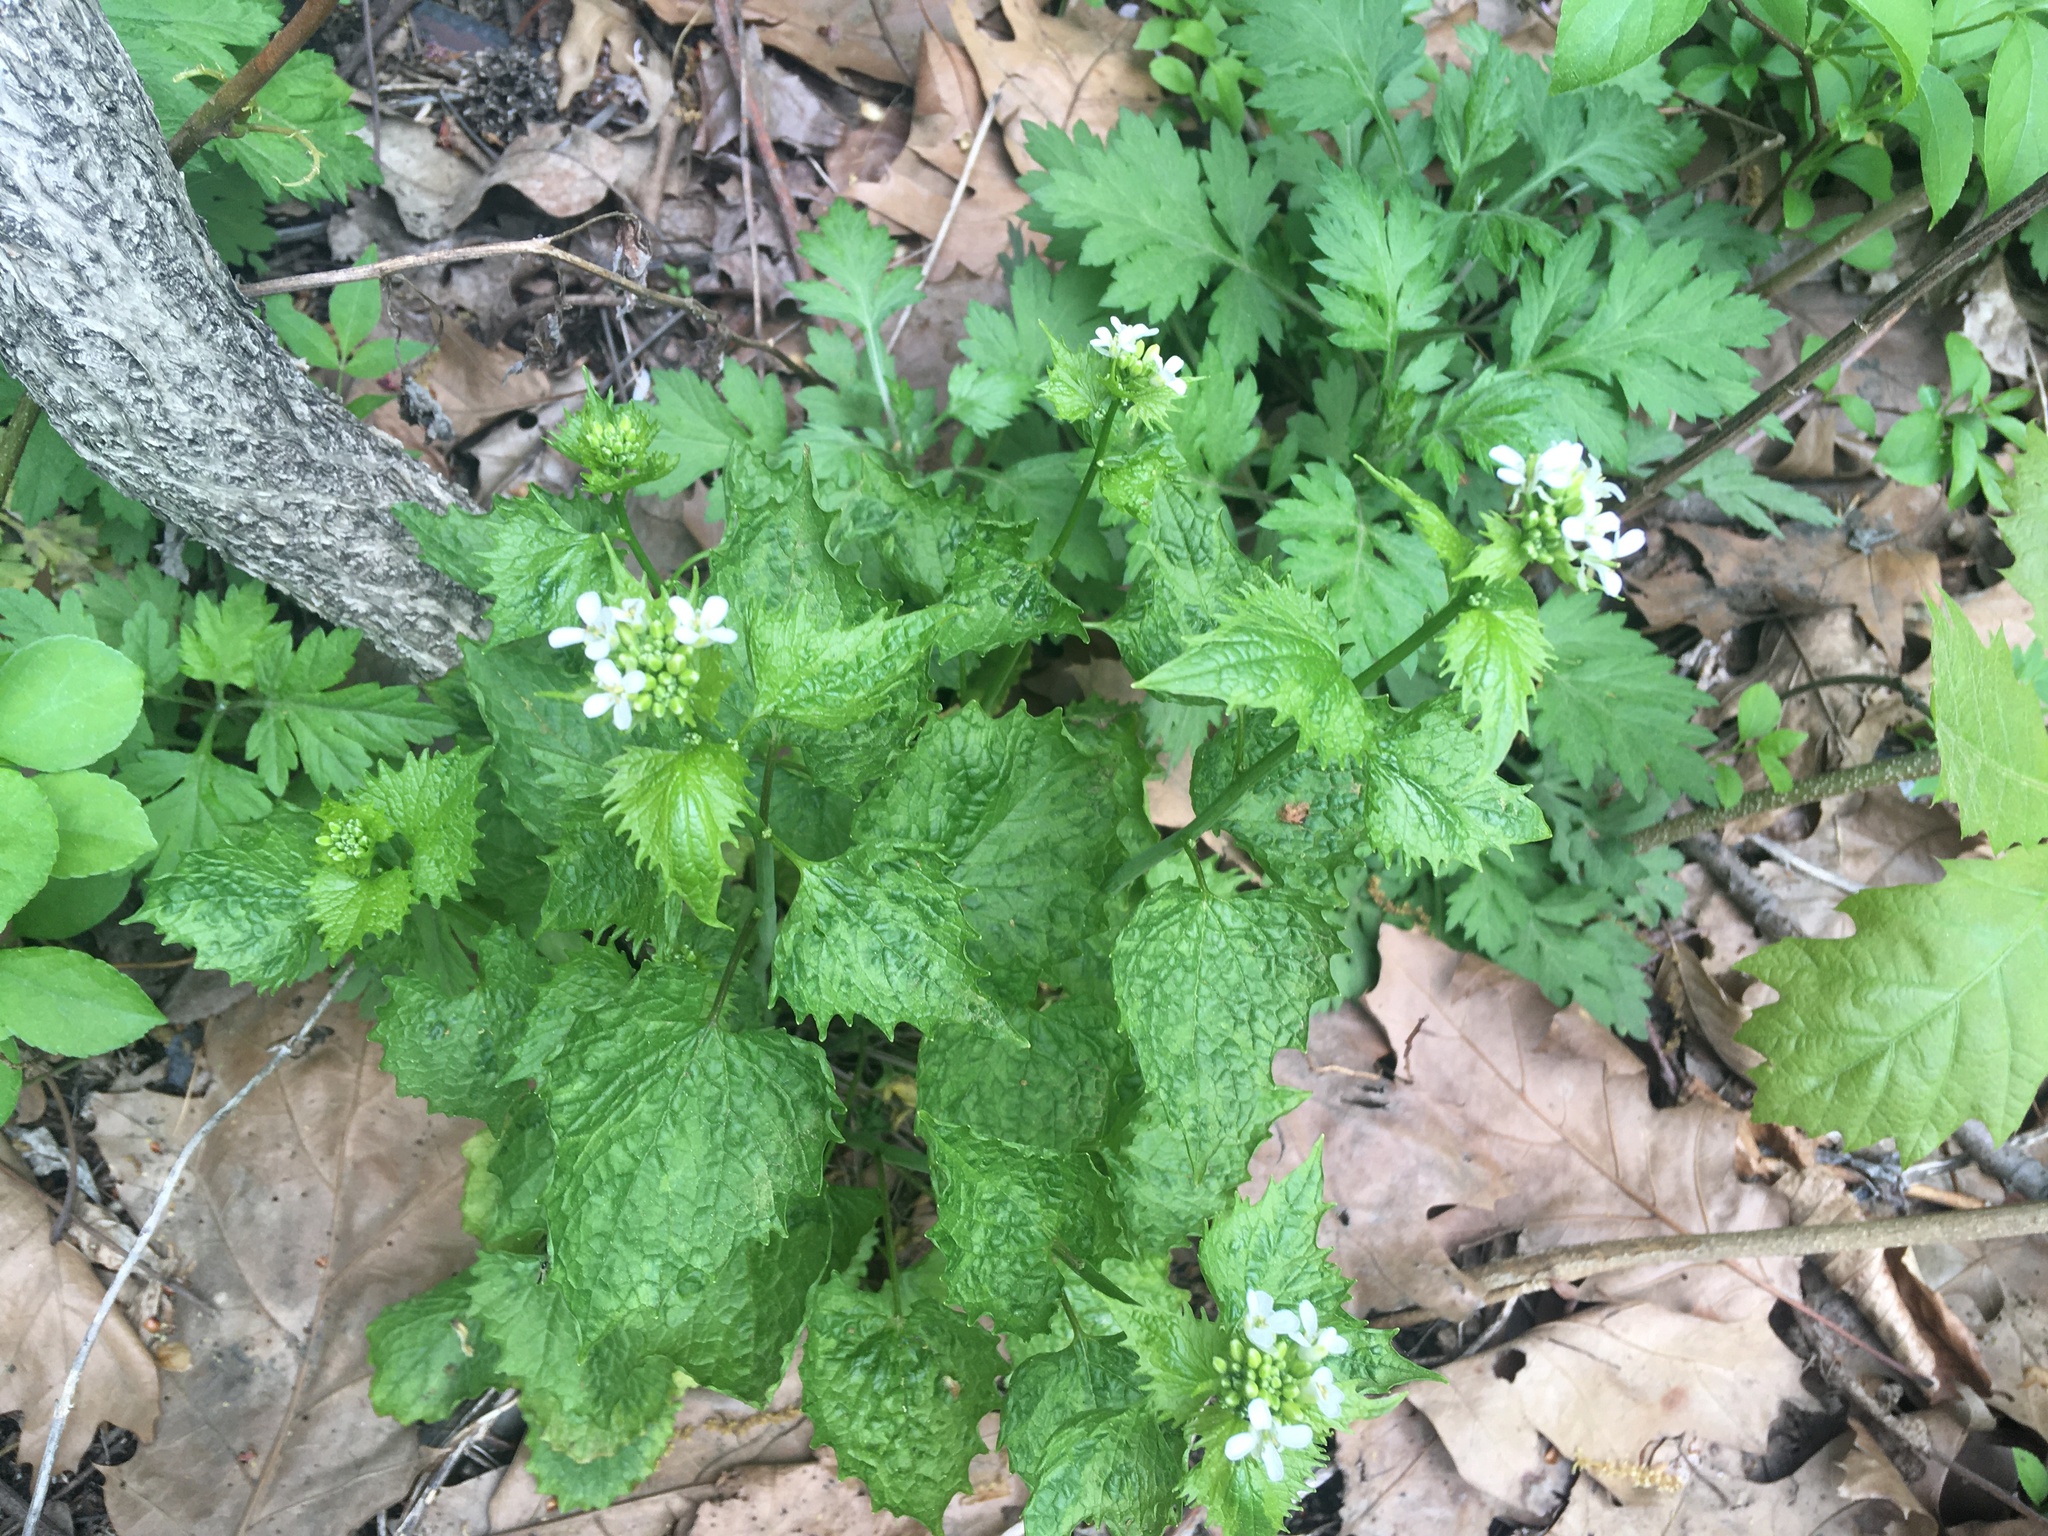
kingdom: Plantae
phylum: Tracheophyta
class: Magnoliopsida
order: Brassicales
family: Brassicaceae
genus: Alliaria
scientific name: Alliaria petiolata
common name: Garlic mustard
